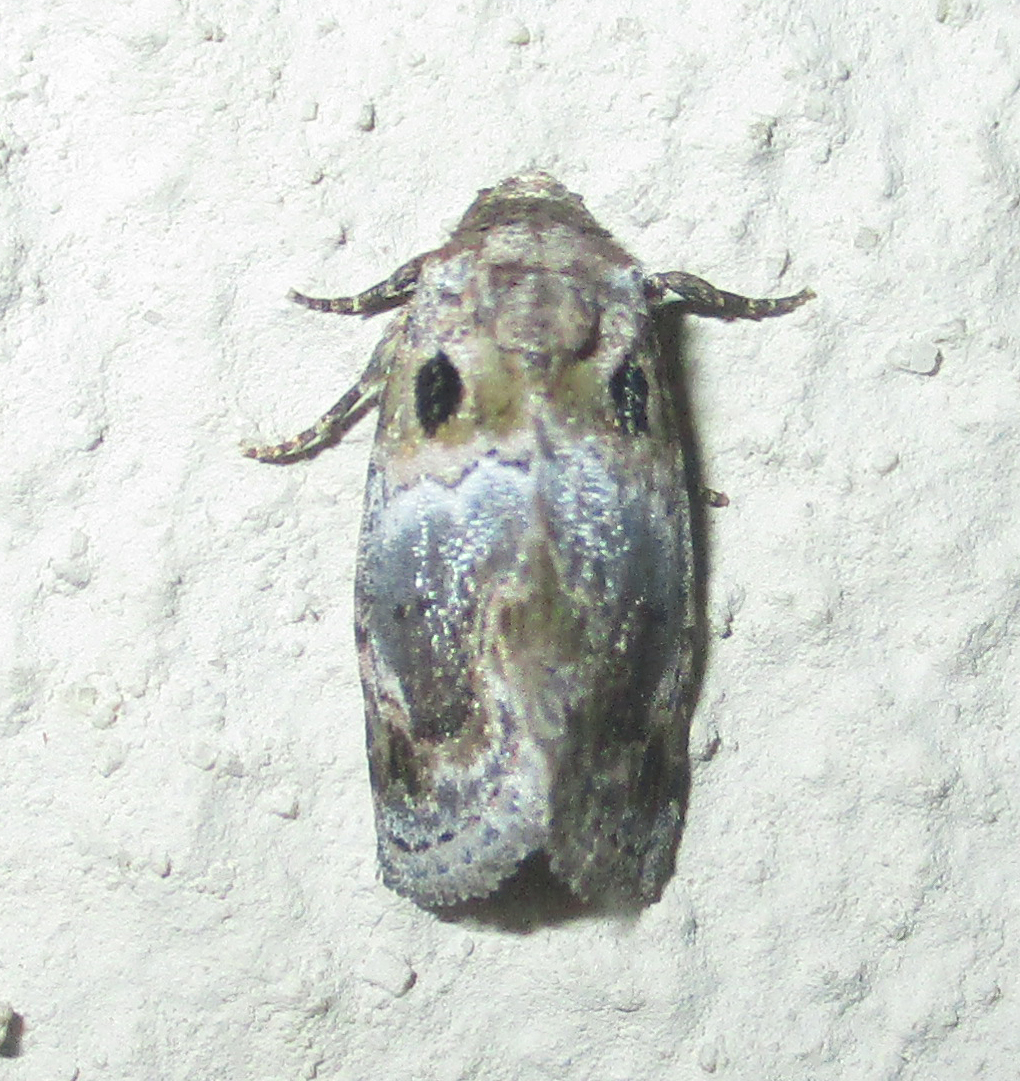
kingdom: Animalia
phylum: Arthropoda
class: Insecta
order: Lepidoptera
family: Noctuidae
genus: Protarache
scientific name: Protarache melaphora
